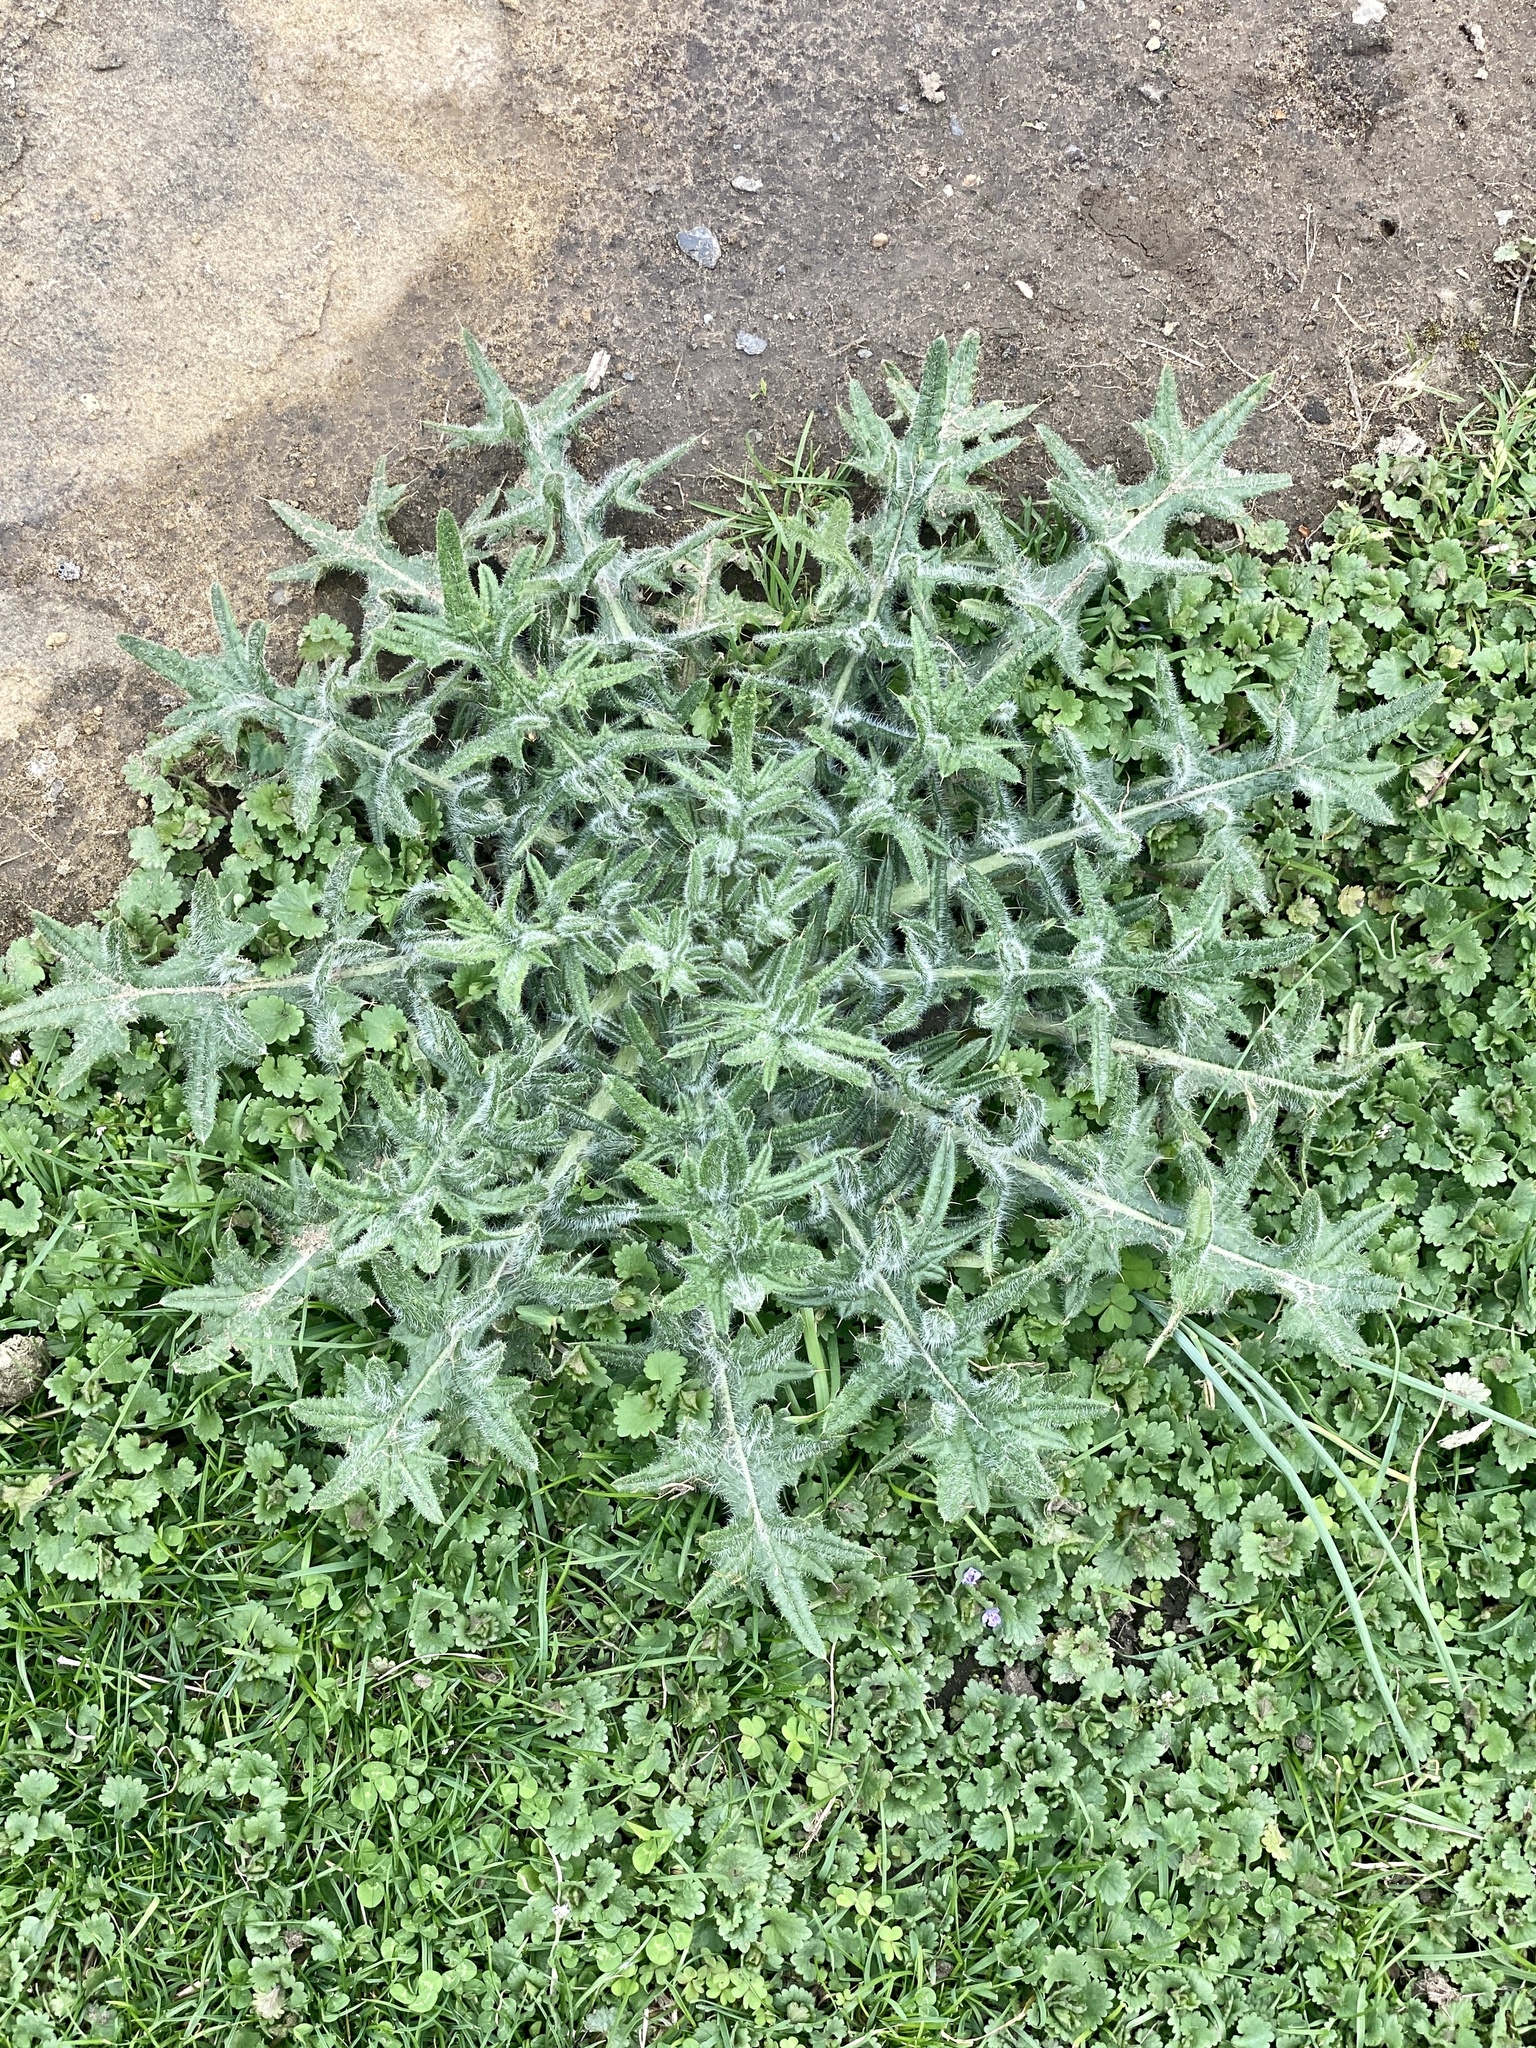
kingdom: Plantae
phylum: Tracheophyta
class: Magnoliopsida
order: Asterales
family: Asteraceae
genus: Cirsium
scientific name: Cirsium vulgare
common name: Bull thistle
